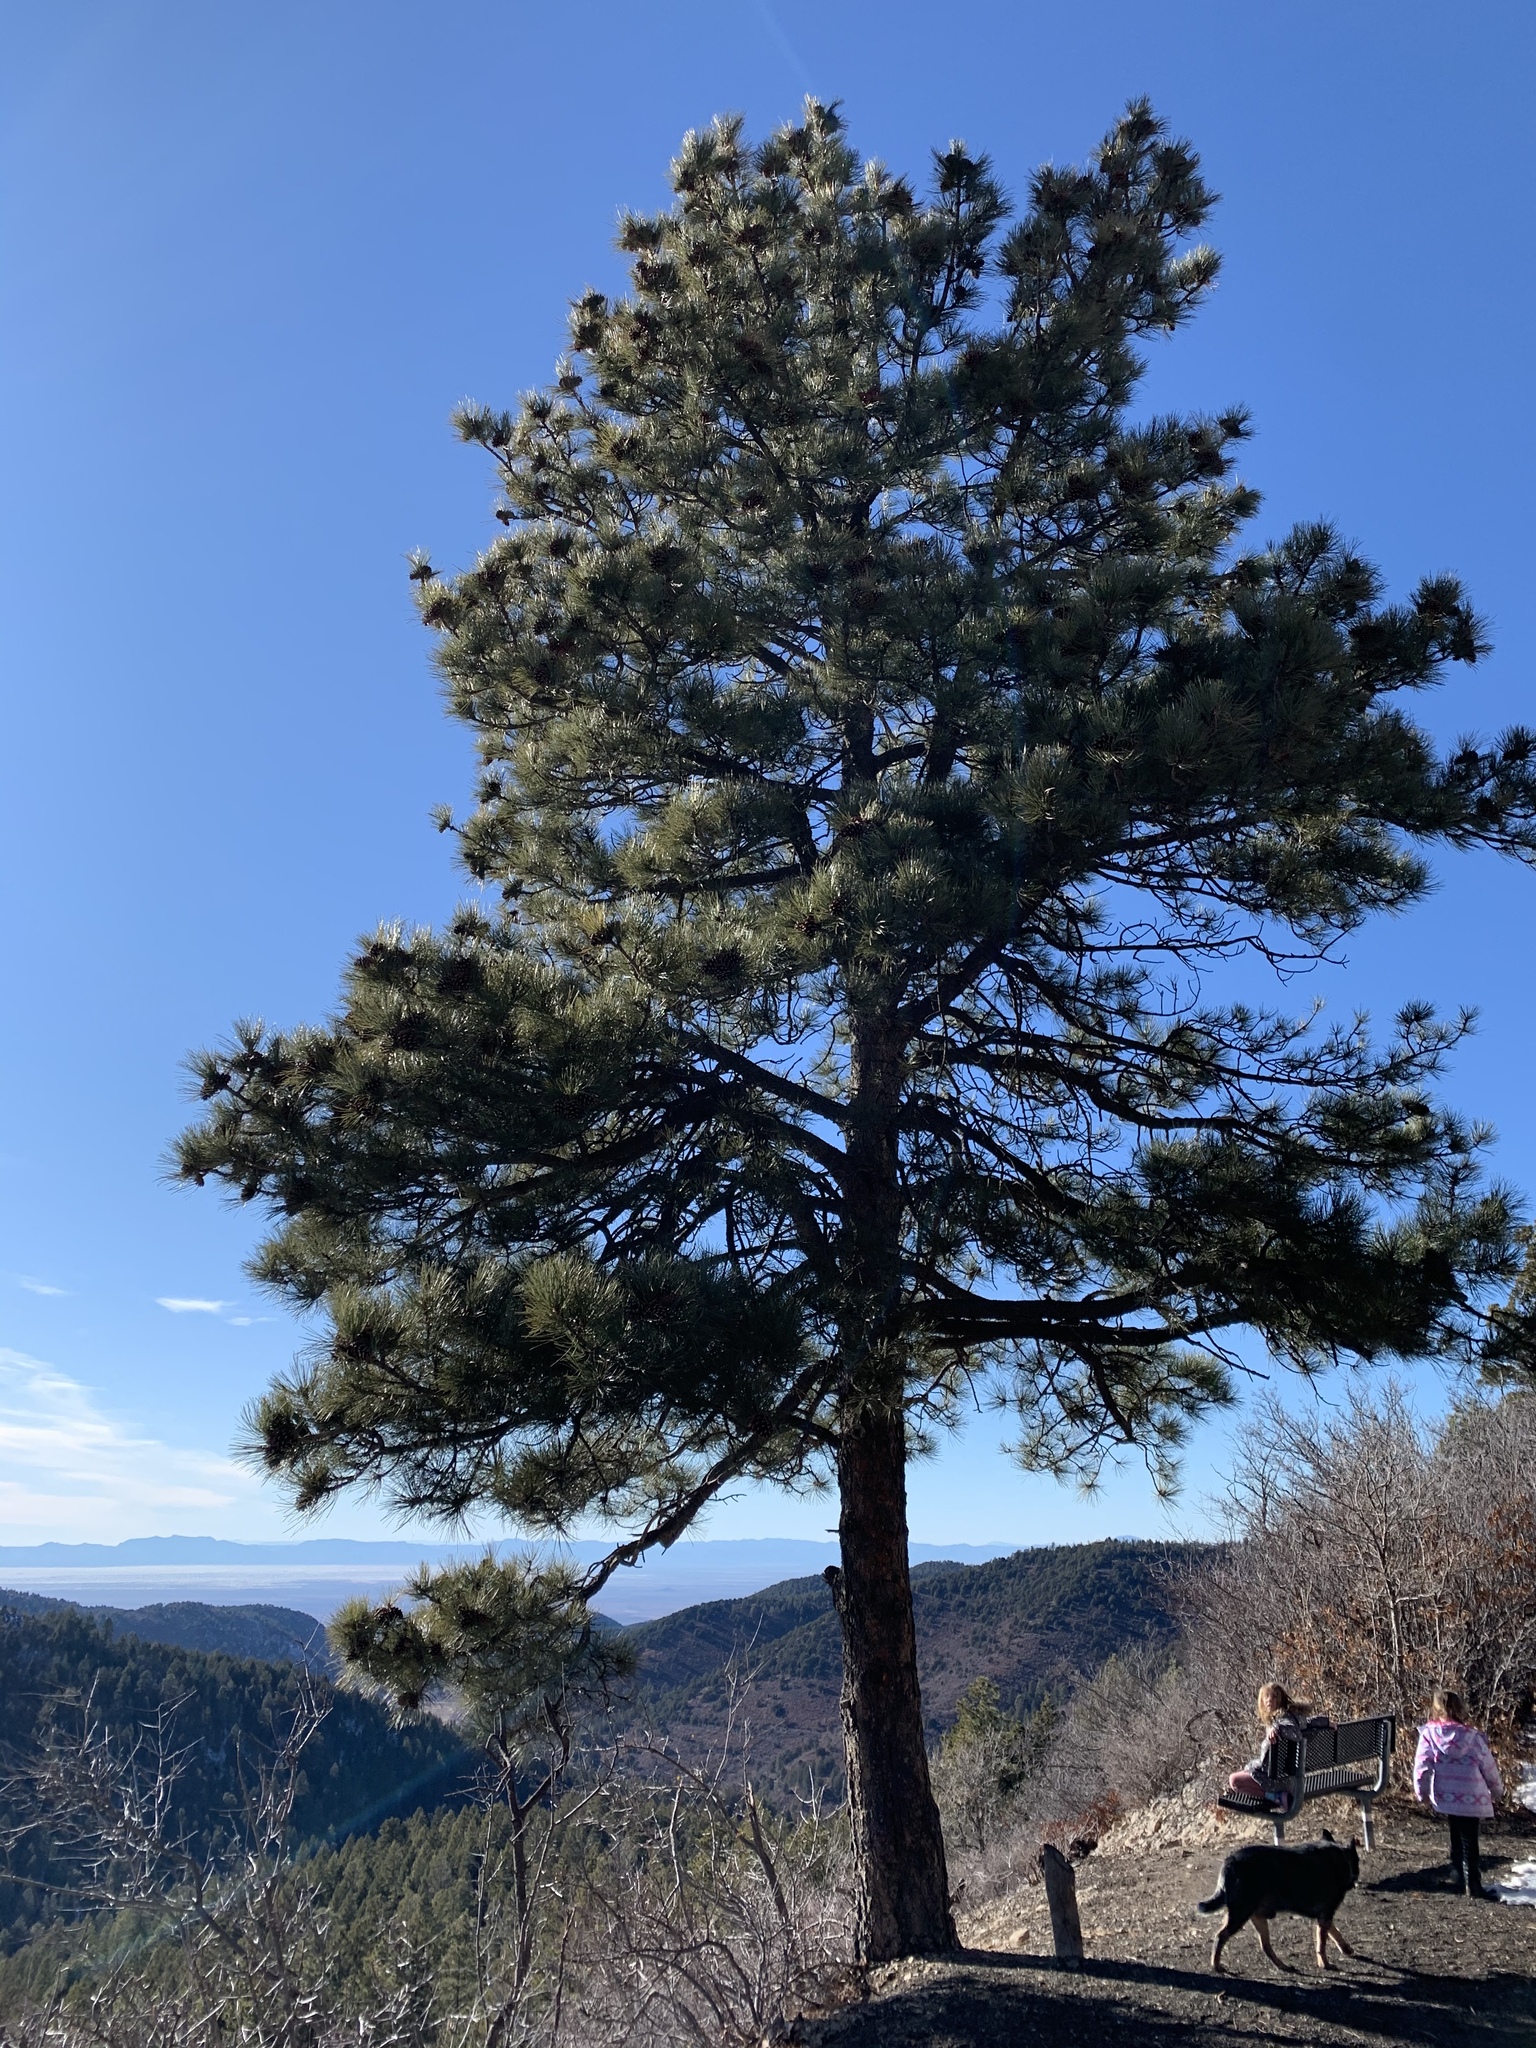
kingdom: Plantae
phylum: Tracheophyta
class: Pinopsida
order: Pinales
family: Pinaceae
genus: Pinus
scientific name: Pinus ponderosa
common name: Western yellow-pine
